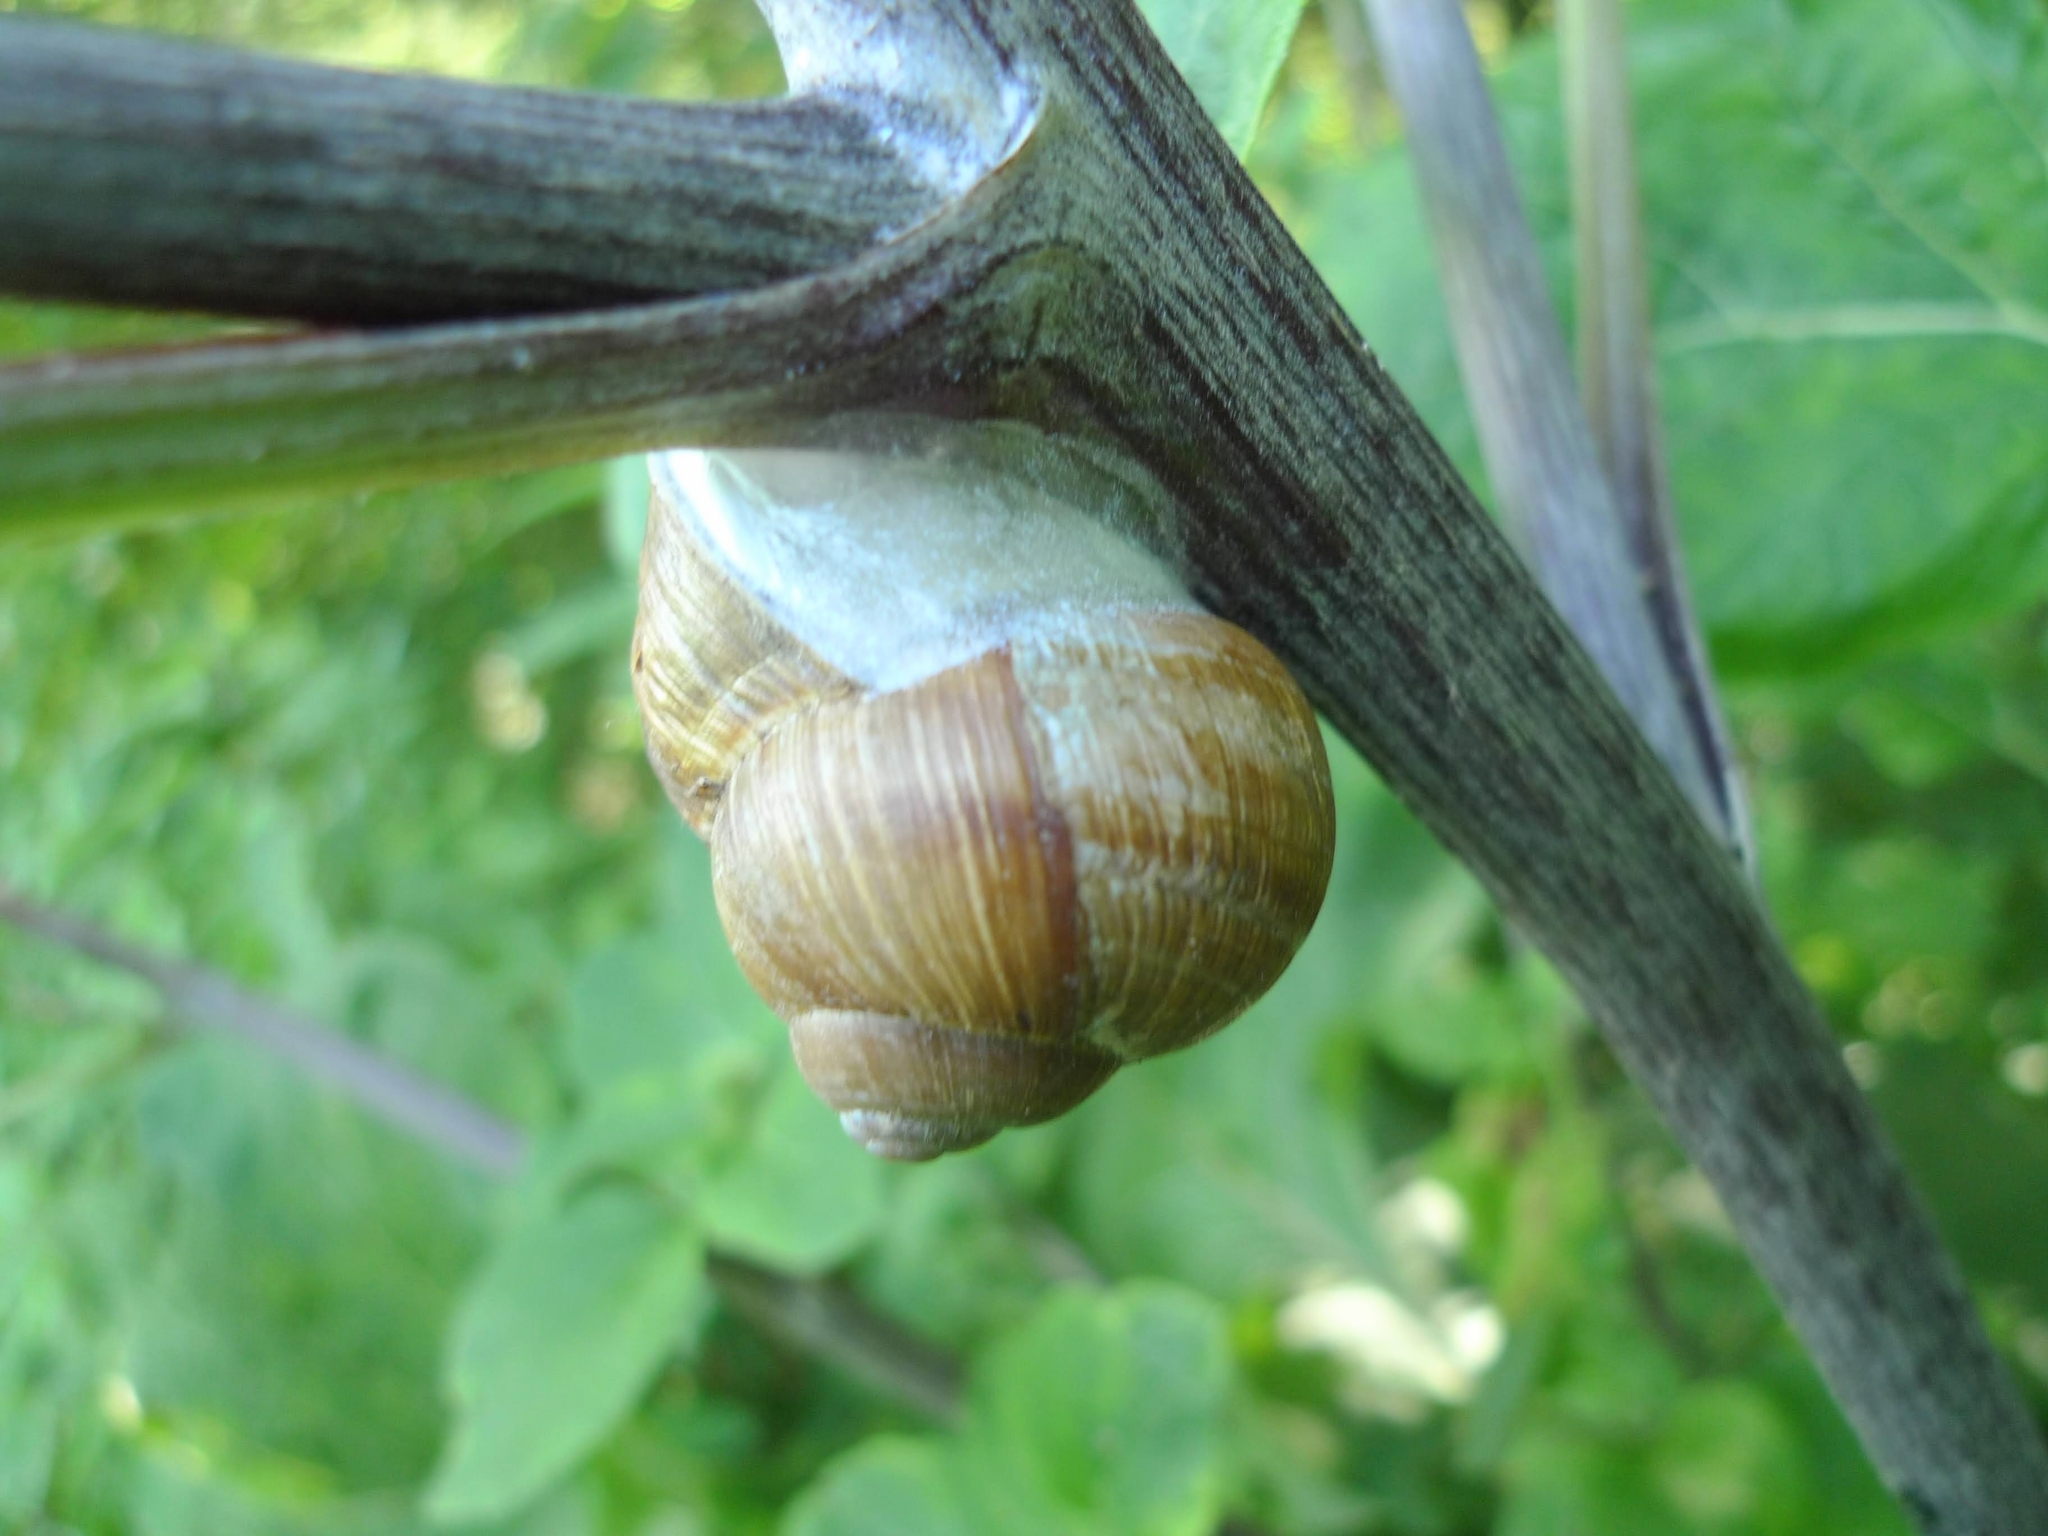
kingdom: Animalia
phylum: Mollusca
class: Gastropoda
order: Stylommatophora
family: Helicidae
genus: Helix
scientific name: Helix pomatia
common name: Roman snail
